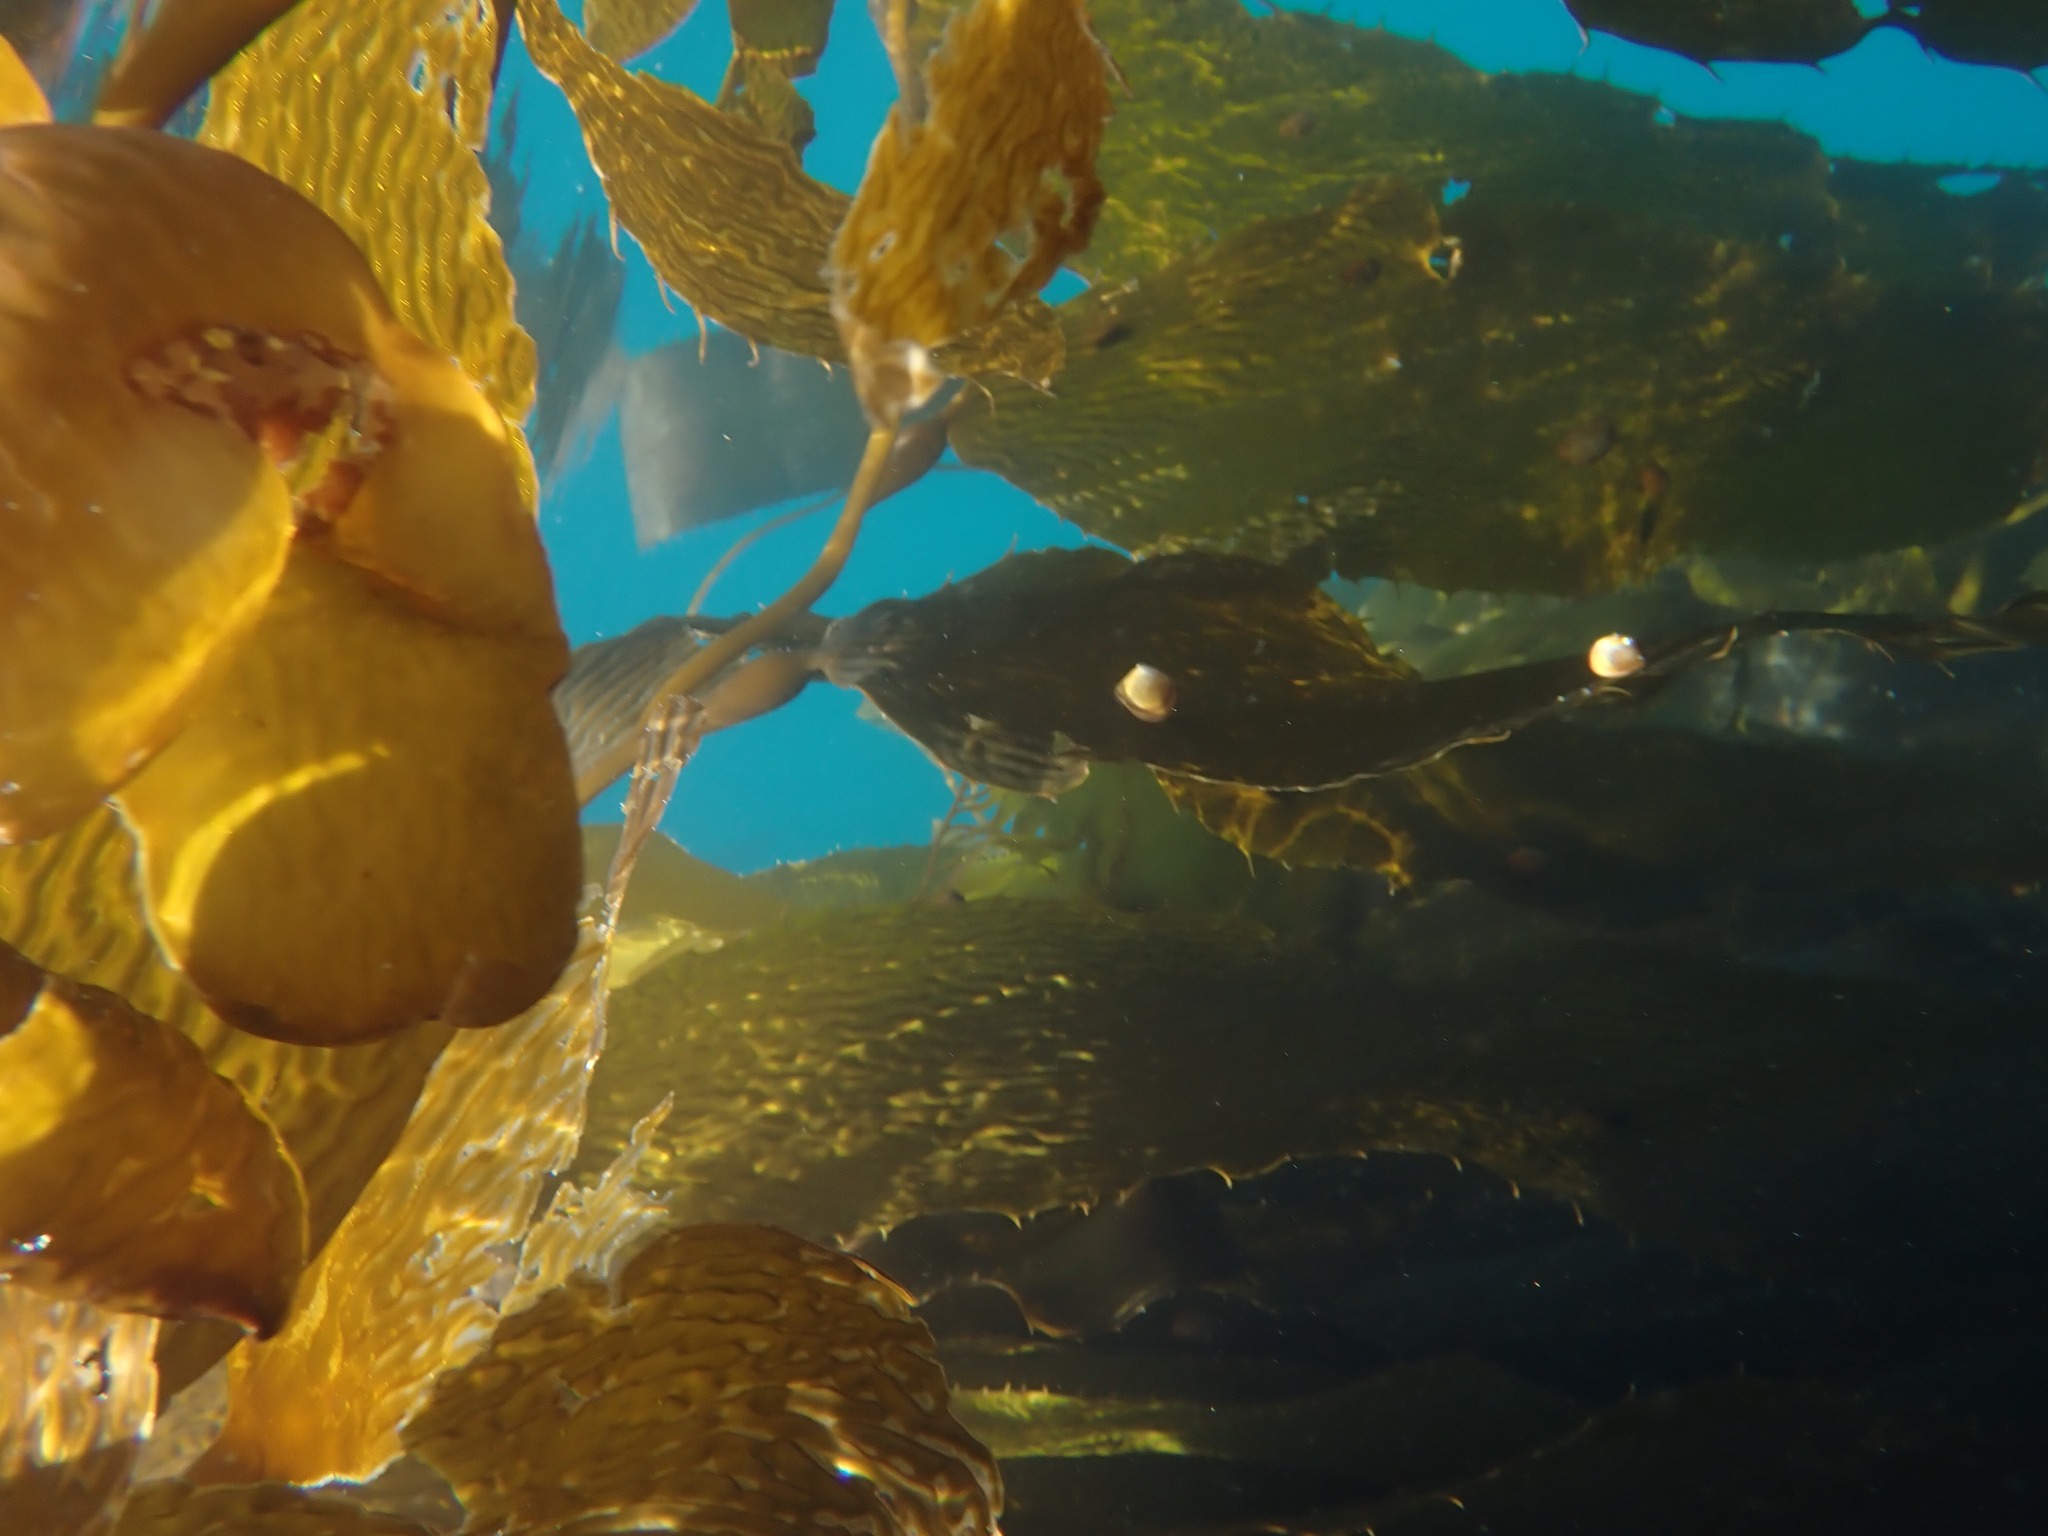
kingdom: Chromista
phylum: Ochrophyta
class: Phaeophyceae
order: Laminariales
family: Laminariaceae
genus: Macrocystis
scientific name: Macrocystis pyrifera
